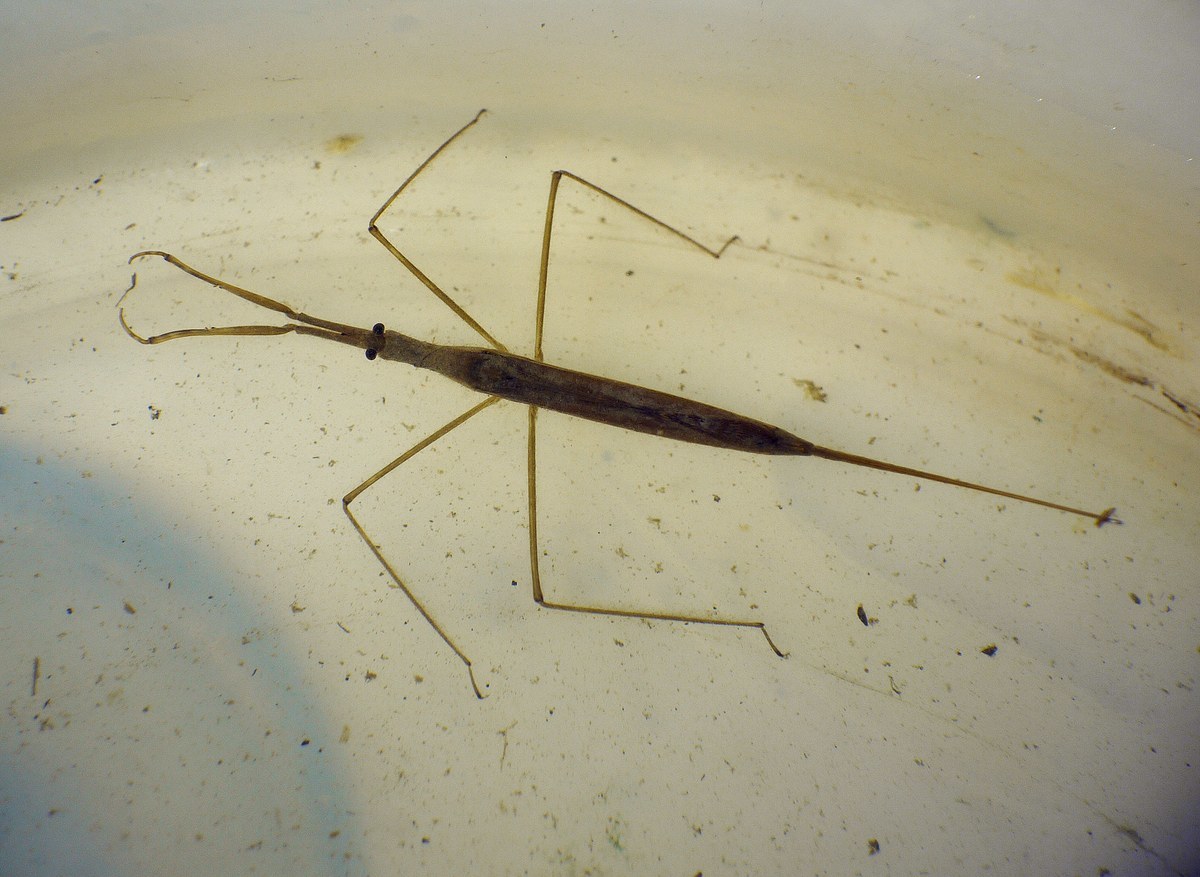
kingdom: Animalia
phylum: Arthropoda
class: Insecta
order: Hemiptera
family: Nepidae
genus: Ranatra
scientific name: Ranatra linearis
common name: Water stick insect
